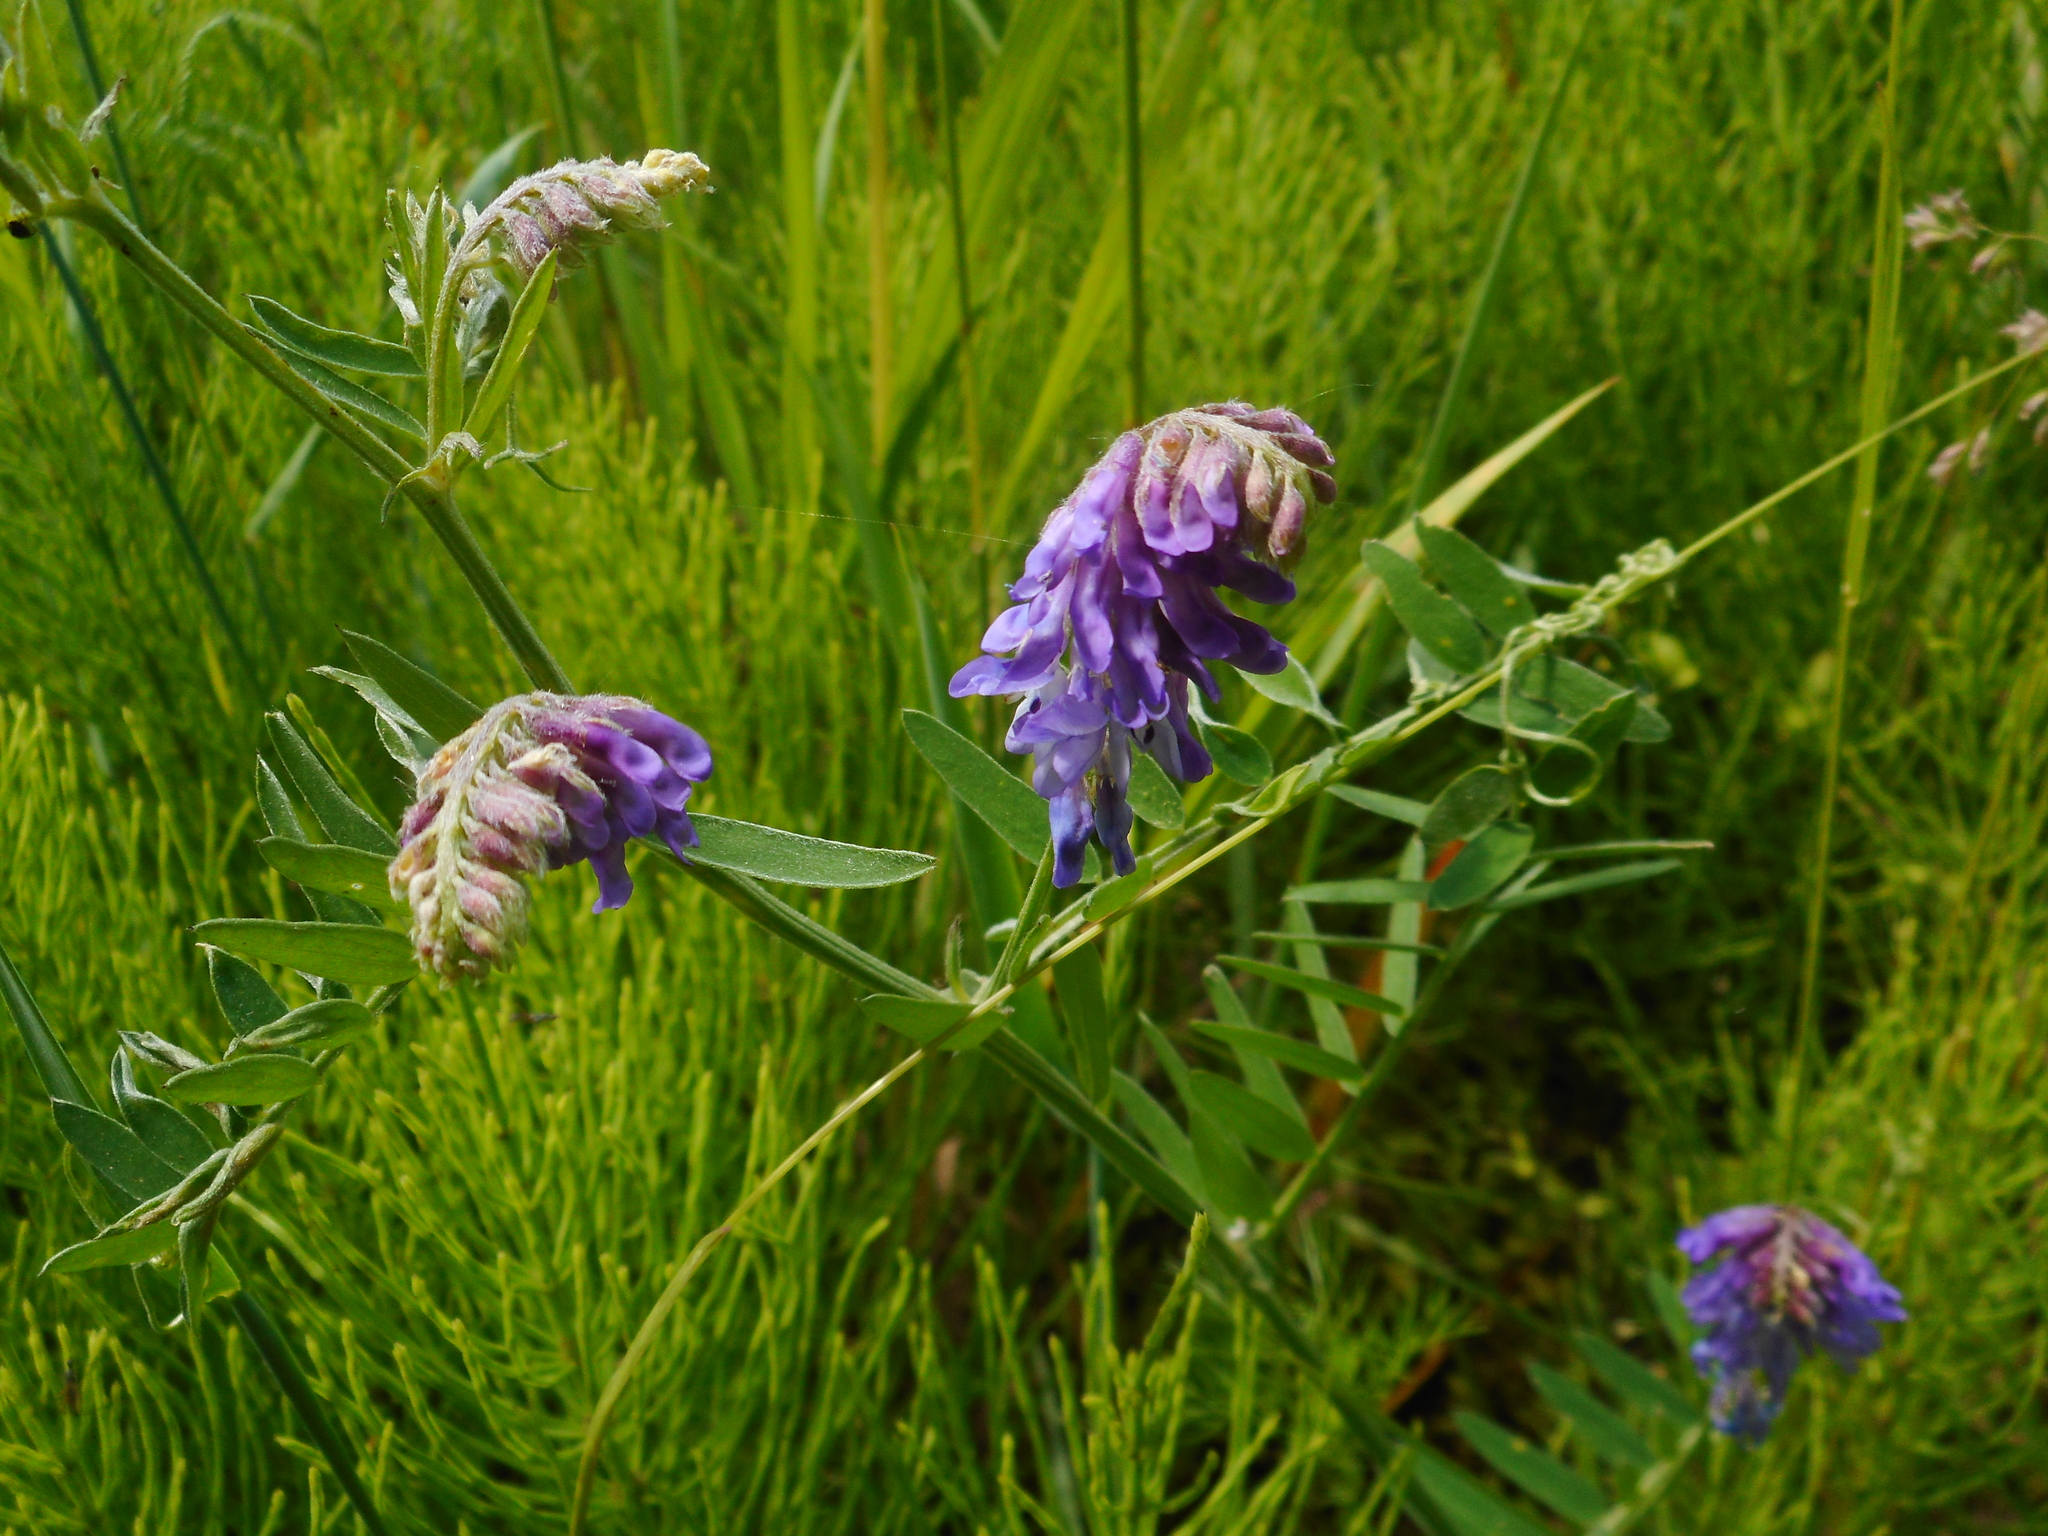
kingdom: Plantae
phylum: Tracheophyta
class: Magnoliopsida
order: Fabales
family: Fabaceae
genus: Vicia
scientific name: Vicia cracca
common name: Bird vetch
